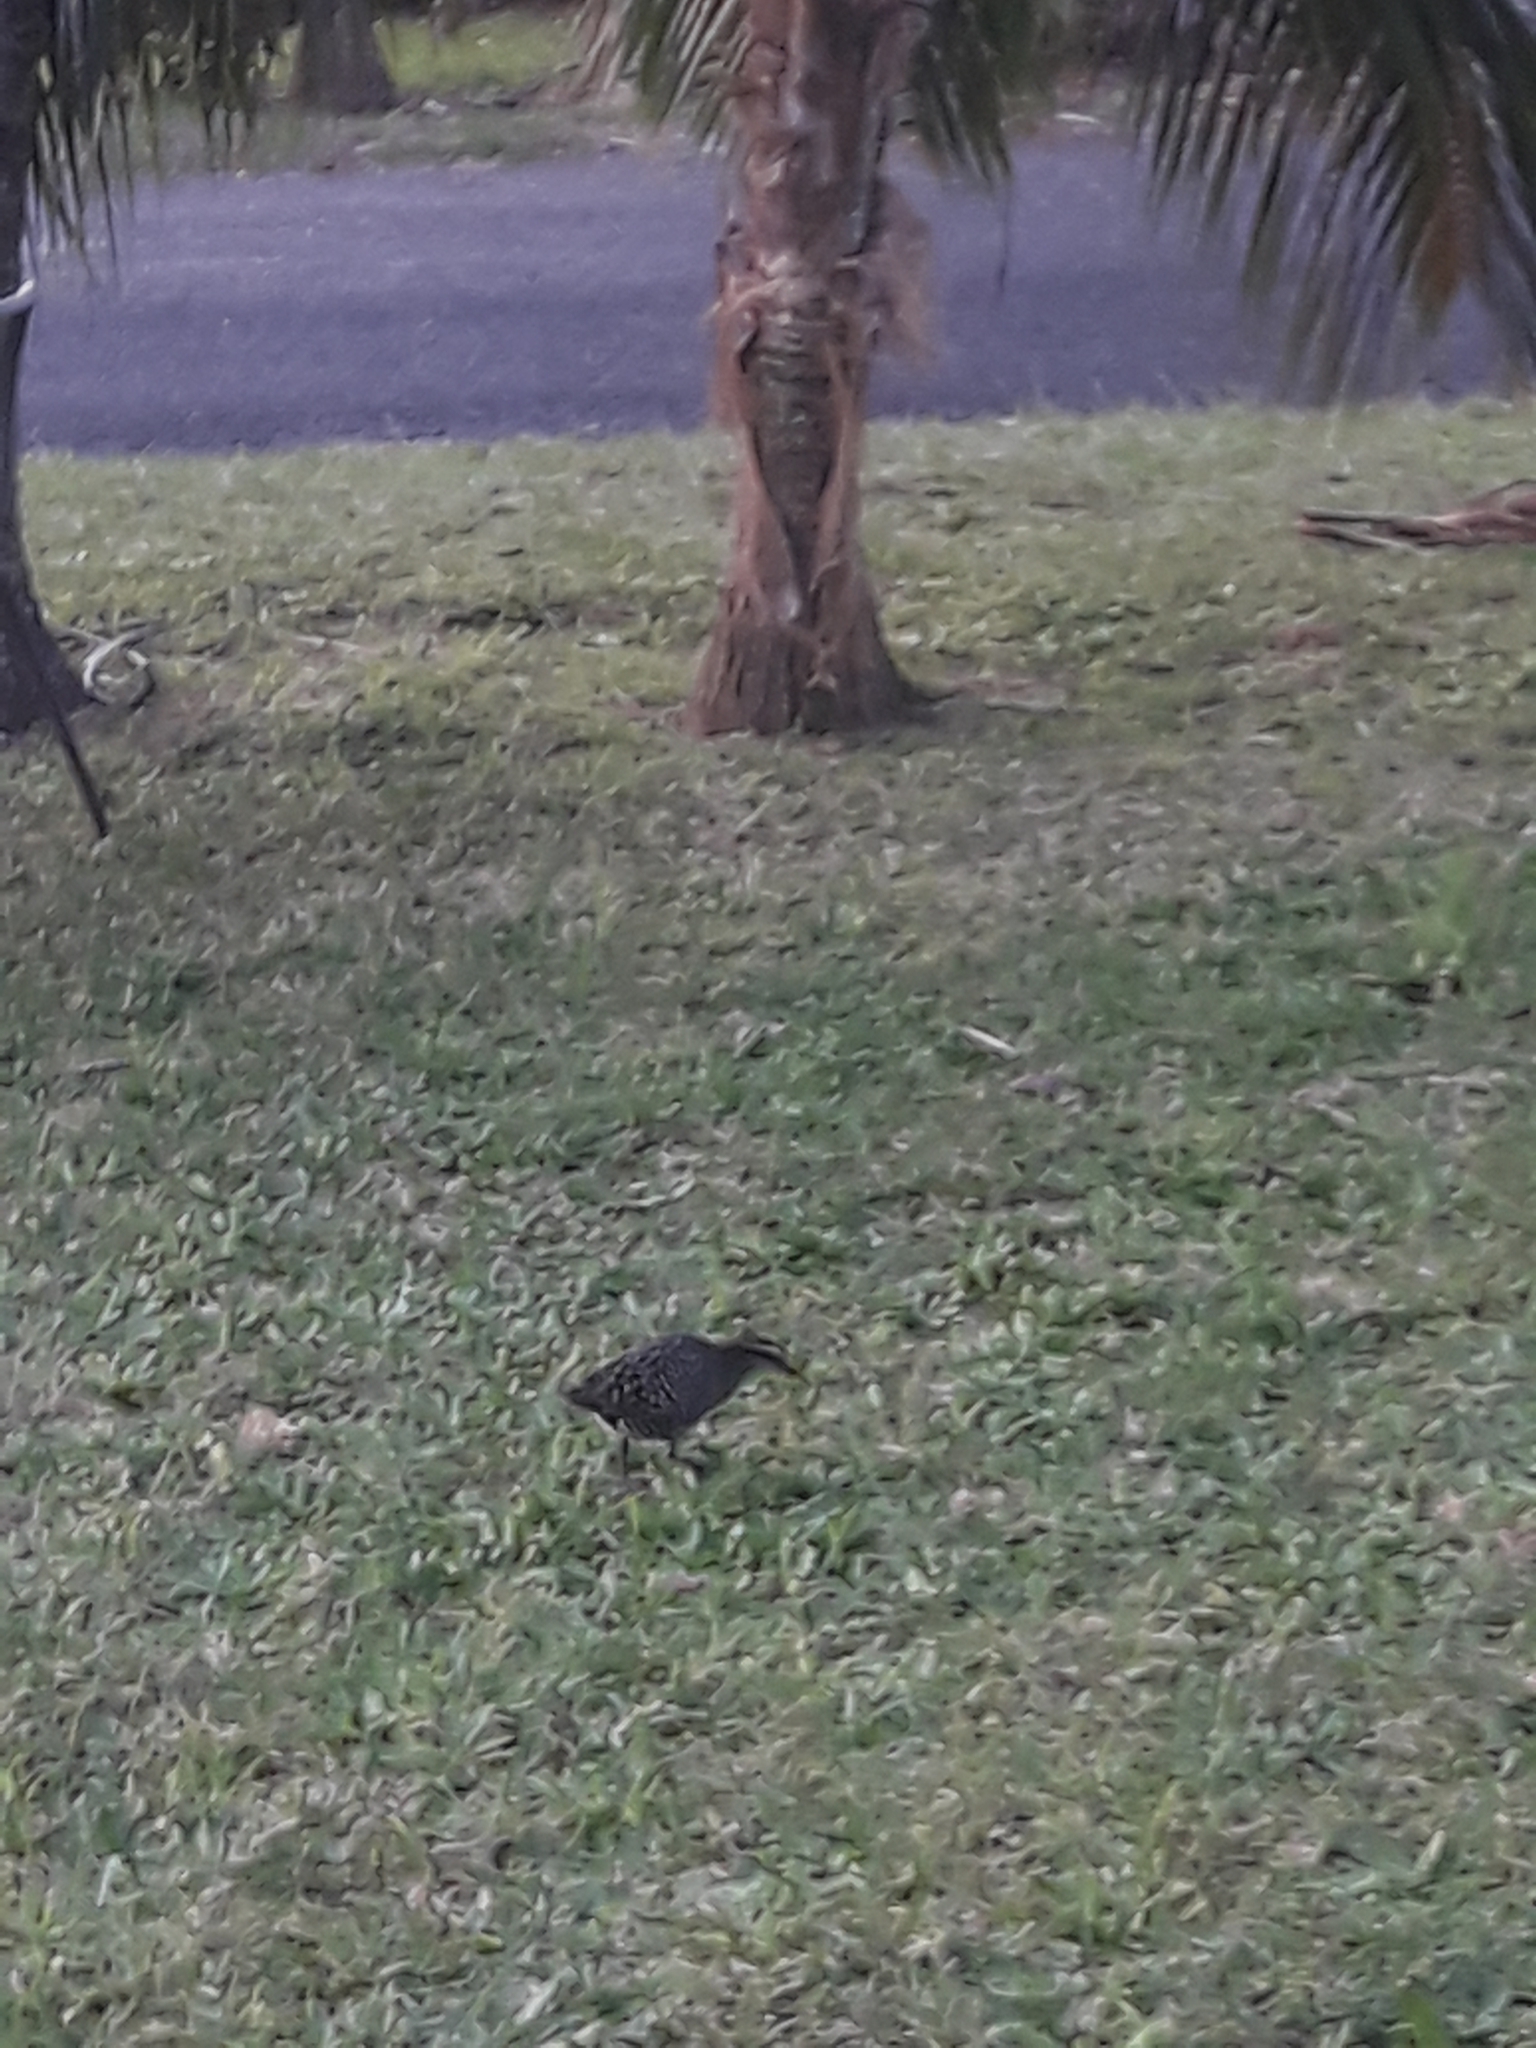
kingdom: Animalia
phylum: Chordata
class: Aves
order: Gruiformes
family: Rallidae
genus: Gallirallus
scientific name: Gallirallus philippensis
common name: Buff-banded rail
